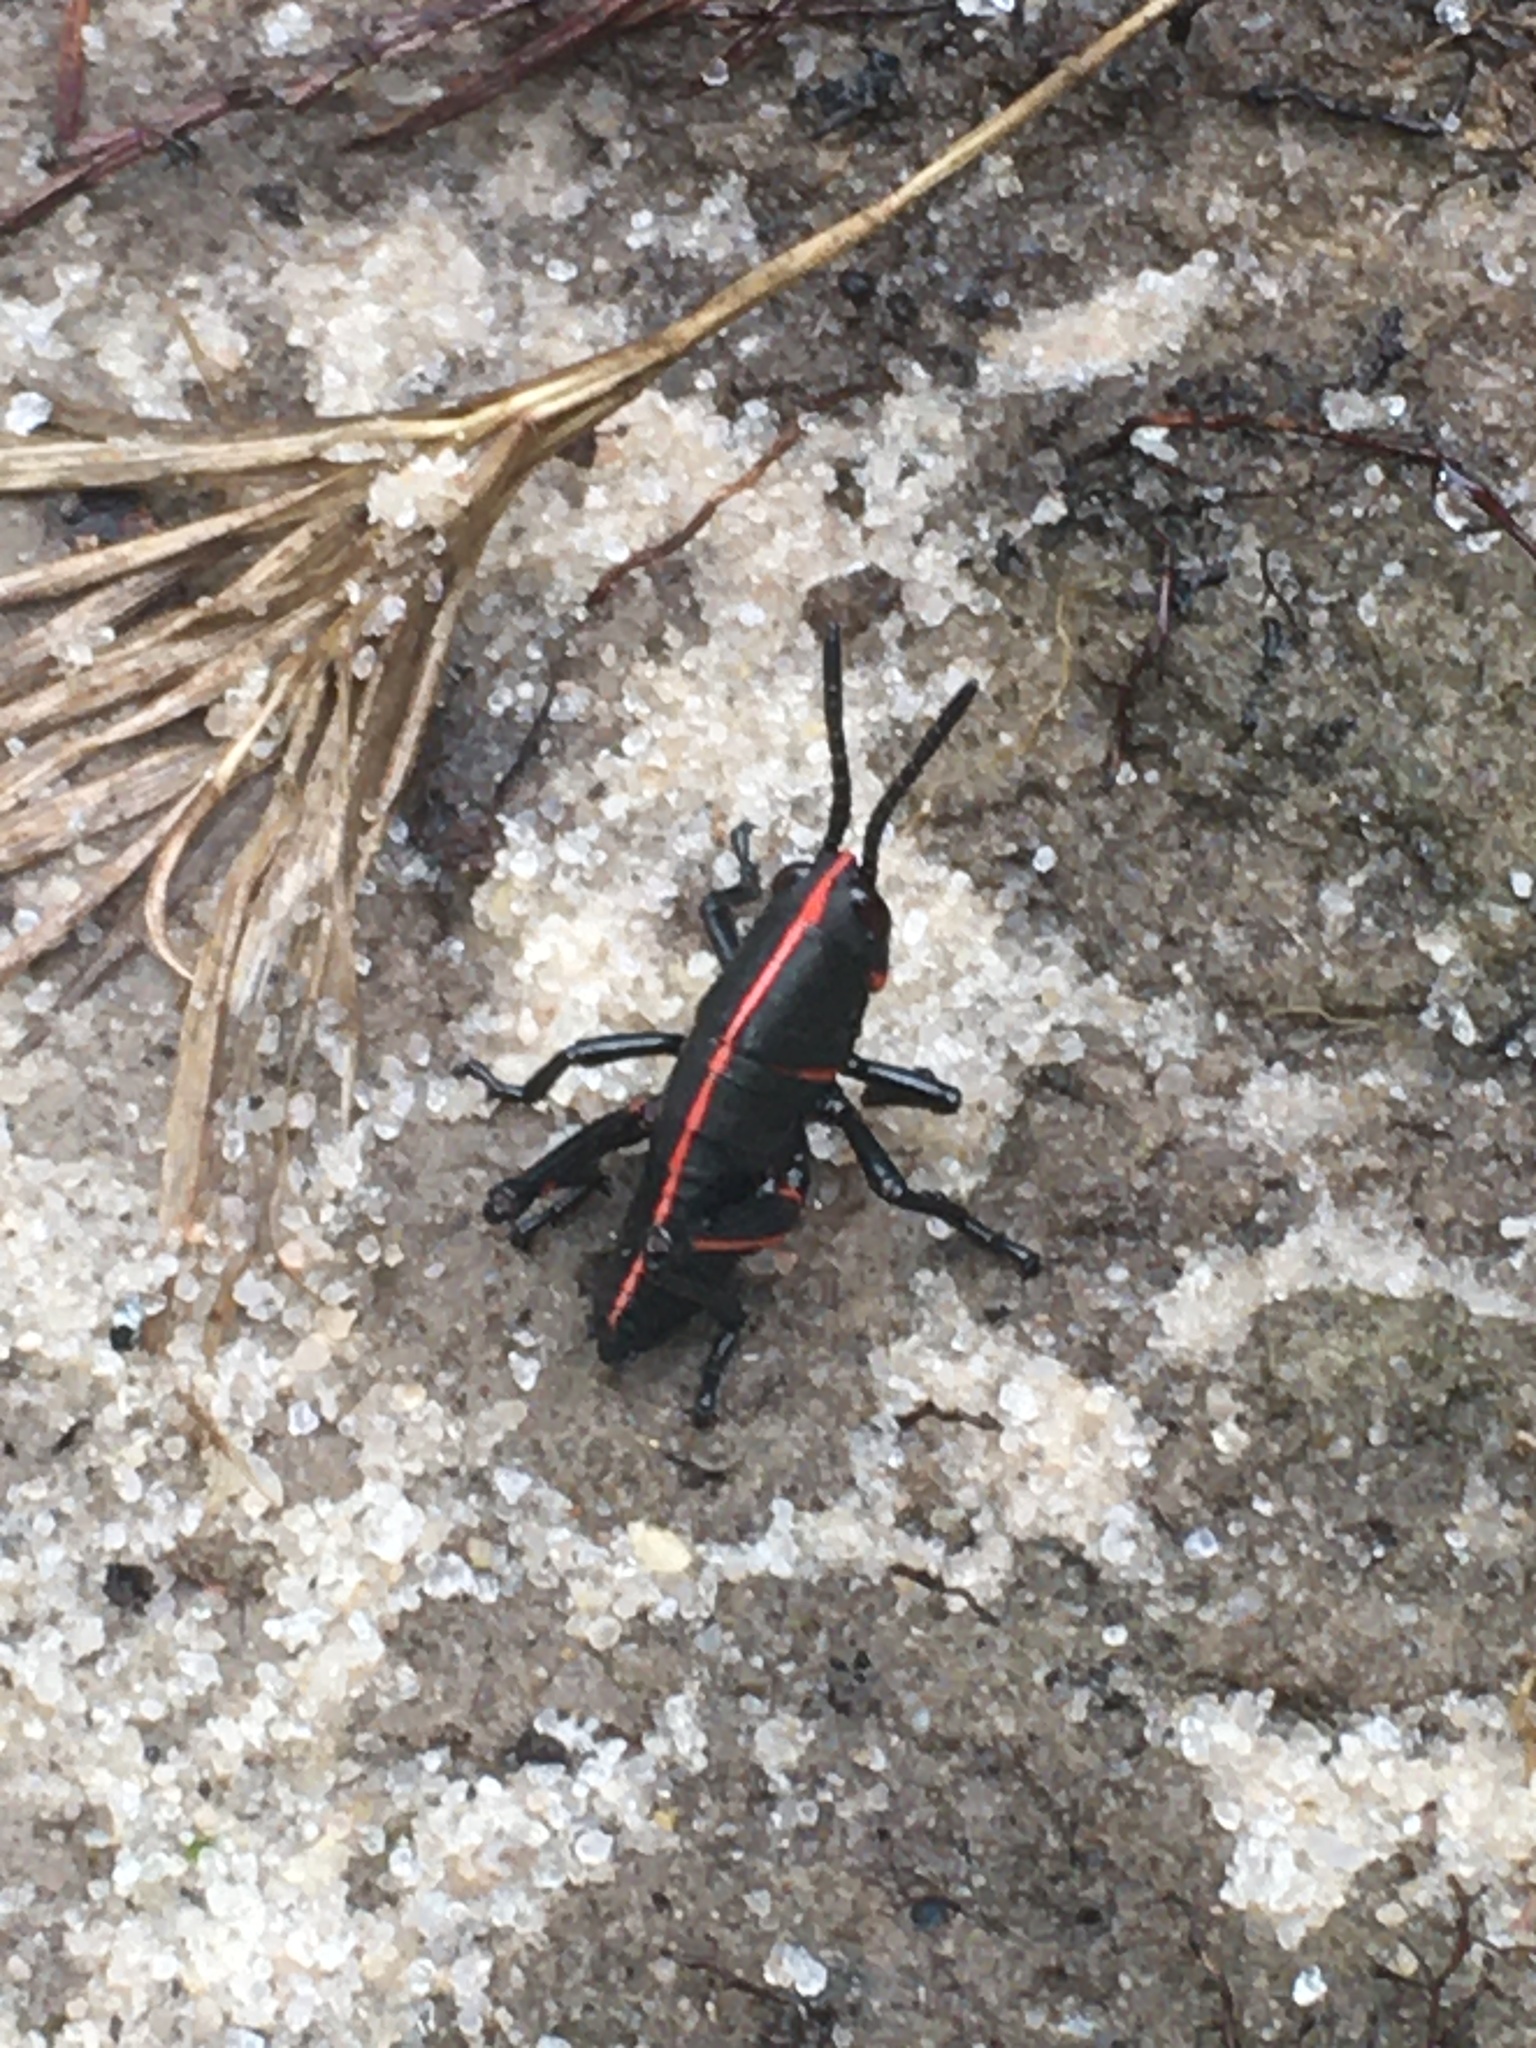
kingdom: Animalia
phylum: Arthropoda
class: Insecta
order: Orthoptera
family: Romaleidae
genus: Romalea
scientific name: Romalea microptera
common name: Eastern lubber grasshopper
